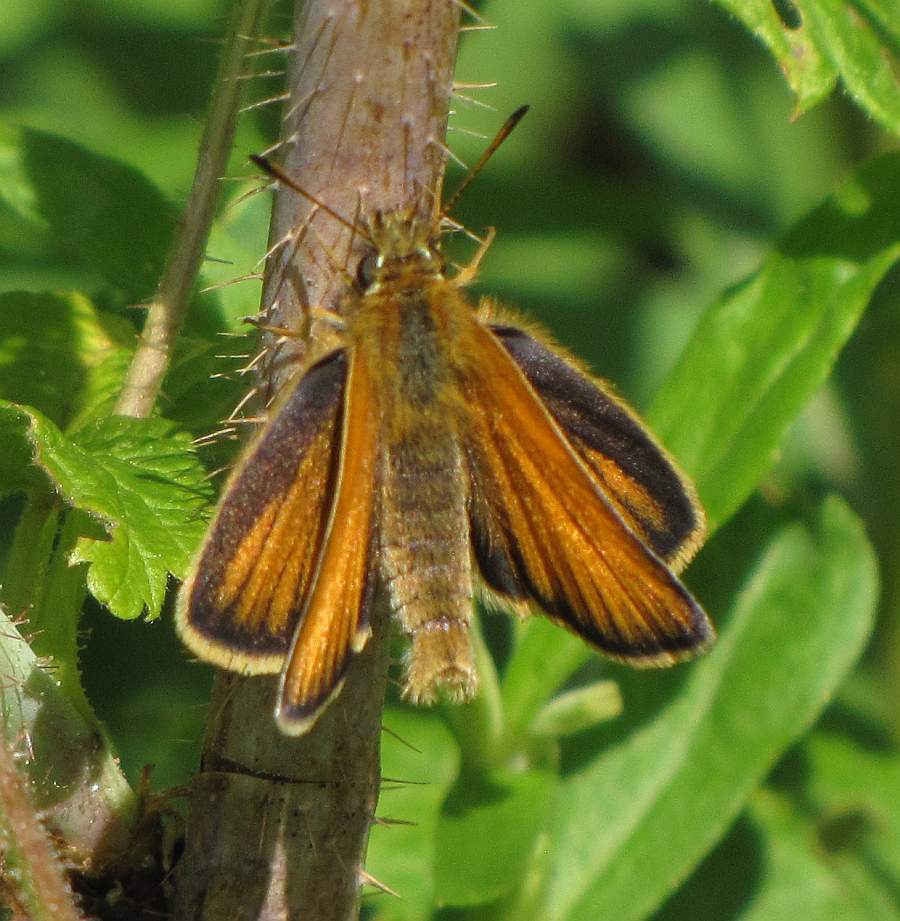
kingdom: Animalia
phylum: Arthropoda
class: Insecta
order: Lepidoptera
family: Hesperiidae
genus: Thymelicus
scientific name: Thymelicus lineola
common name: Essex skipper
